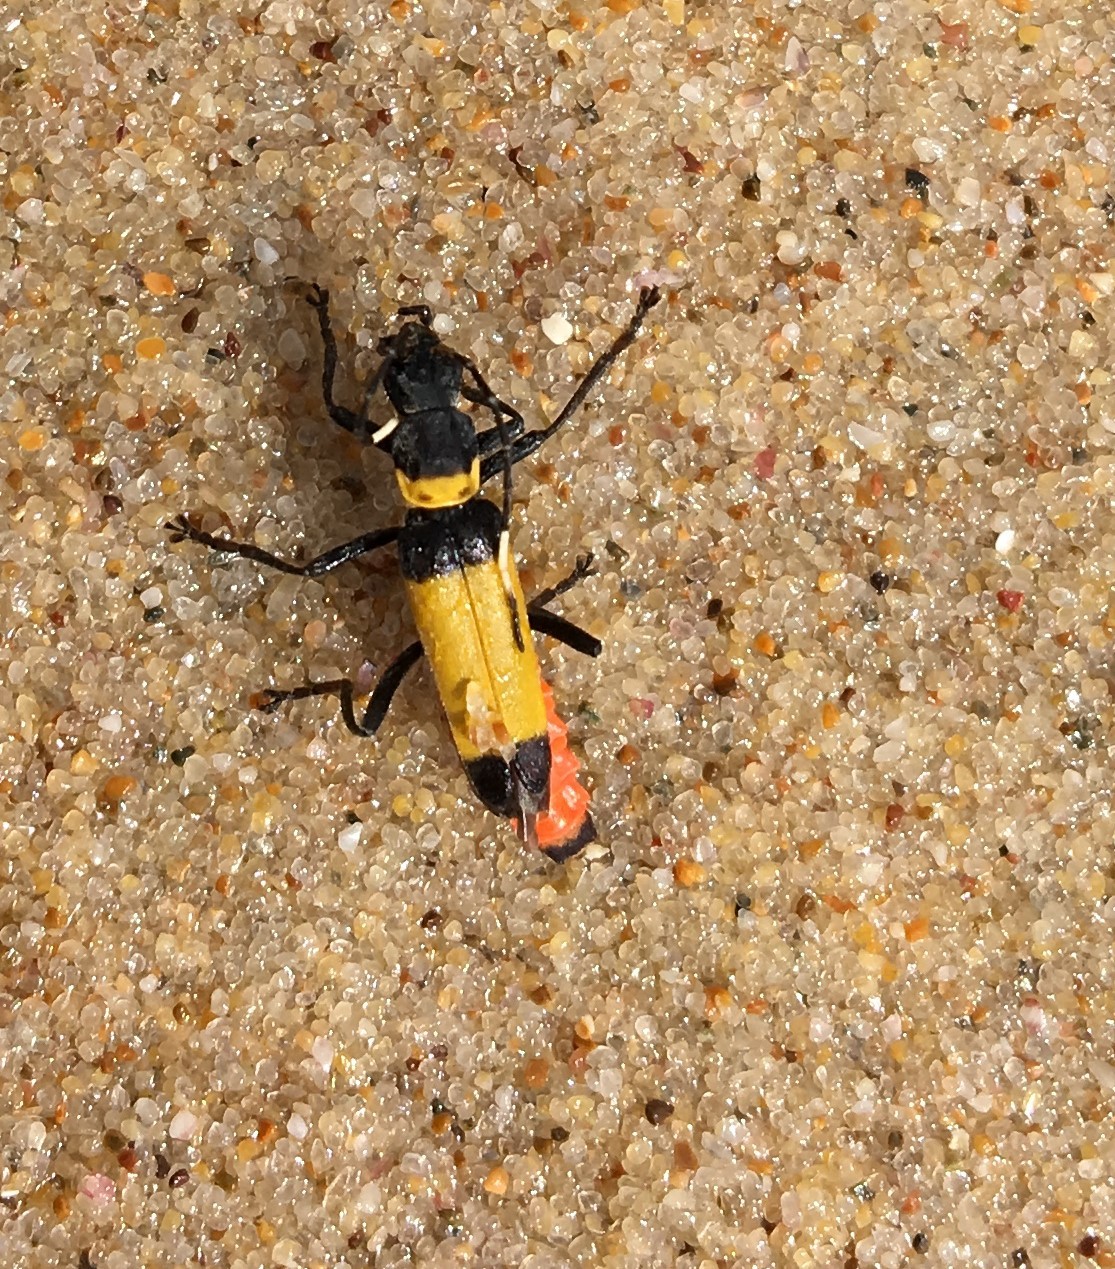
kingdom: Animalia
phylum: Arthropoda
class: Insecta
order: Coleoptera
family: Cantharidae
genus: Chauliognathus
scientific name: Chauliognathus
